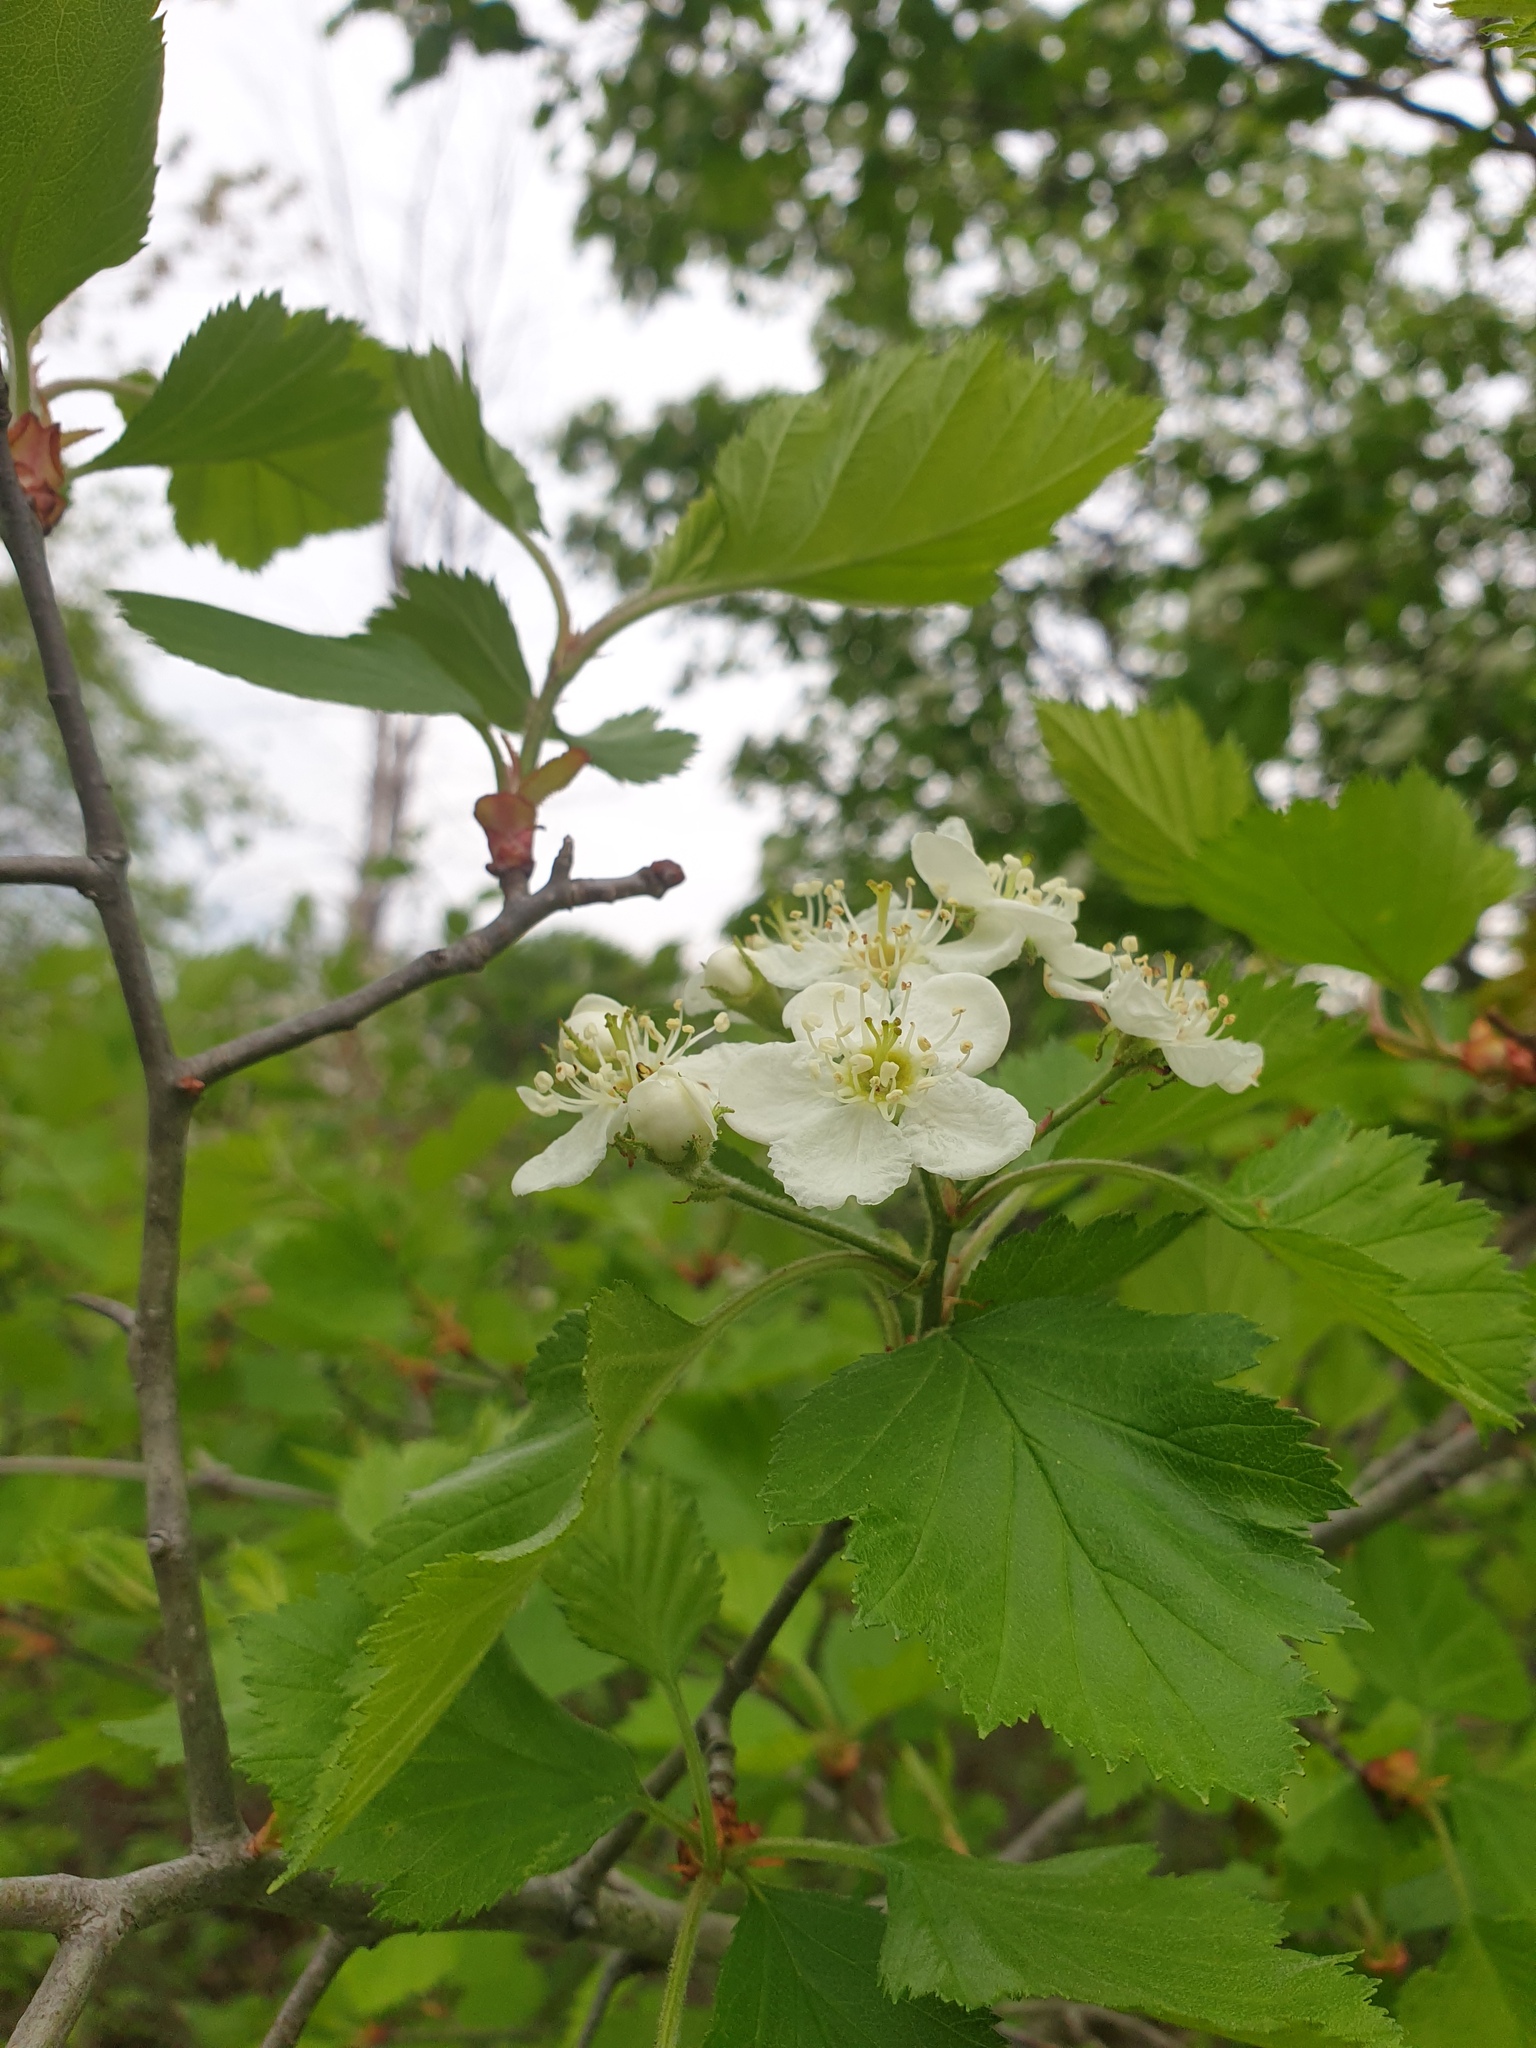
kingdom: Plantae
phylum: Tracheophyta
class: Magnoliopsida
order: Rosales
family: Rosaceae
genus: Crataegus
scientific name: Crataegus submollis
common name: Hairy cockspurthorn
